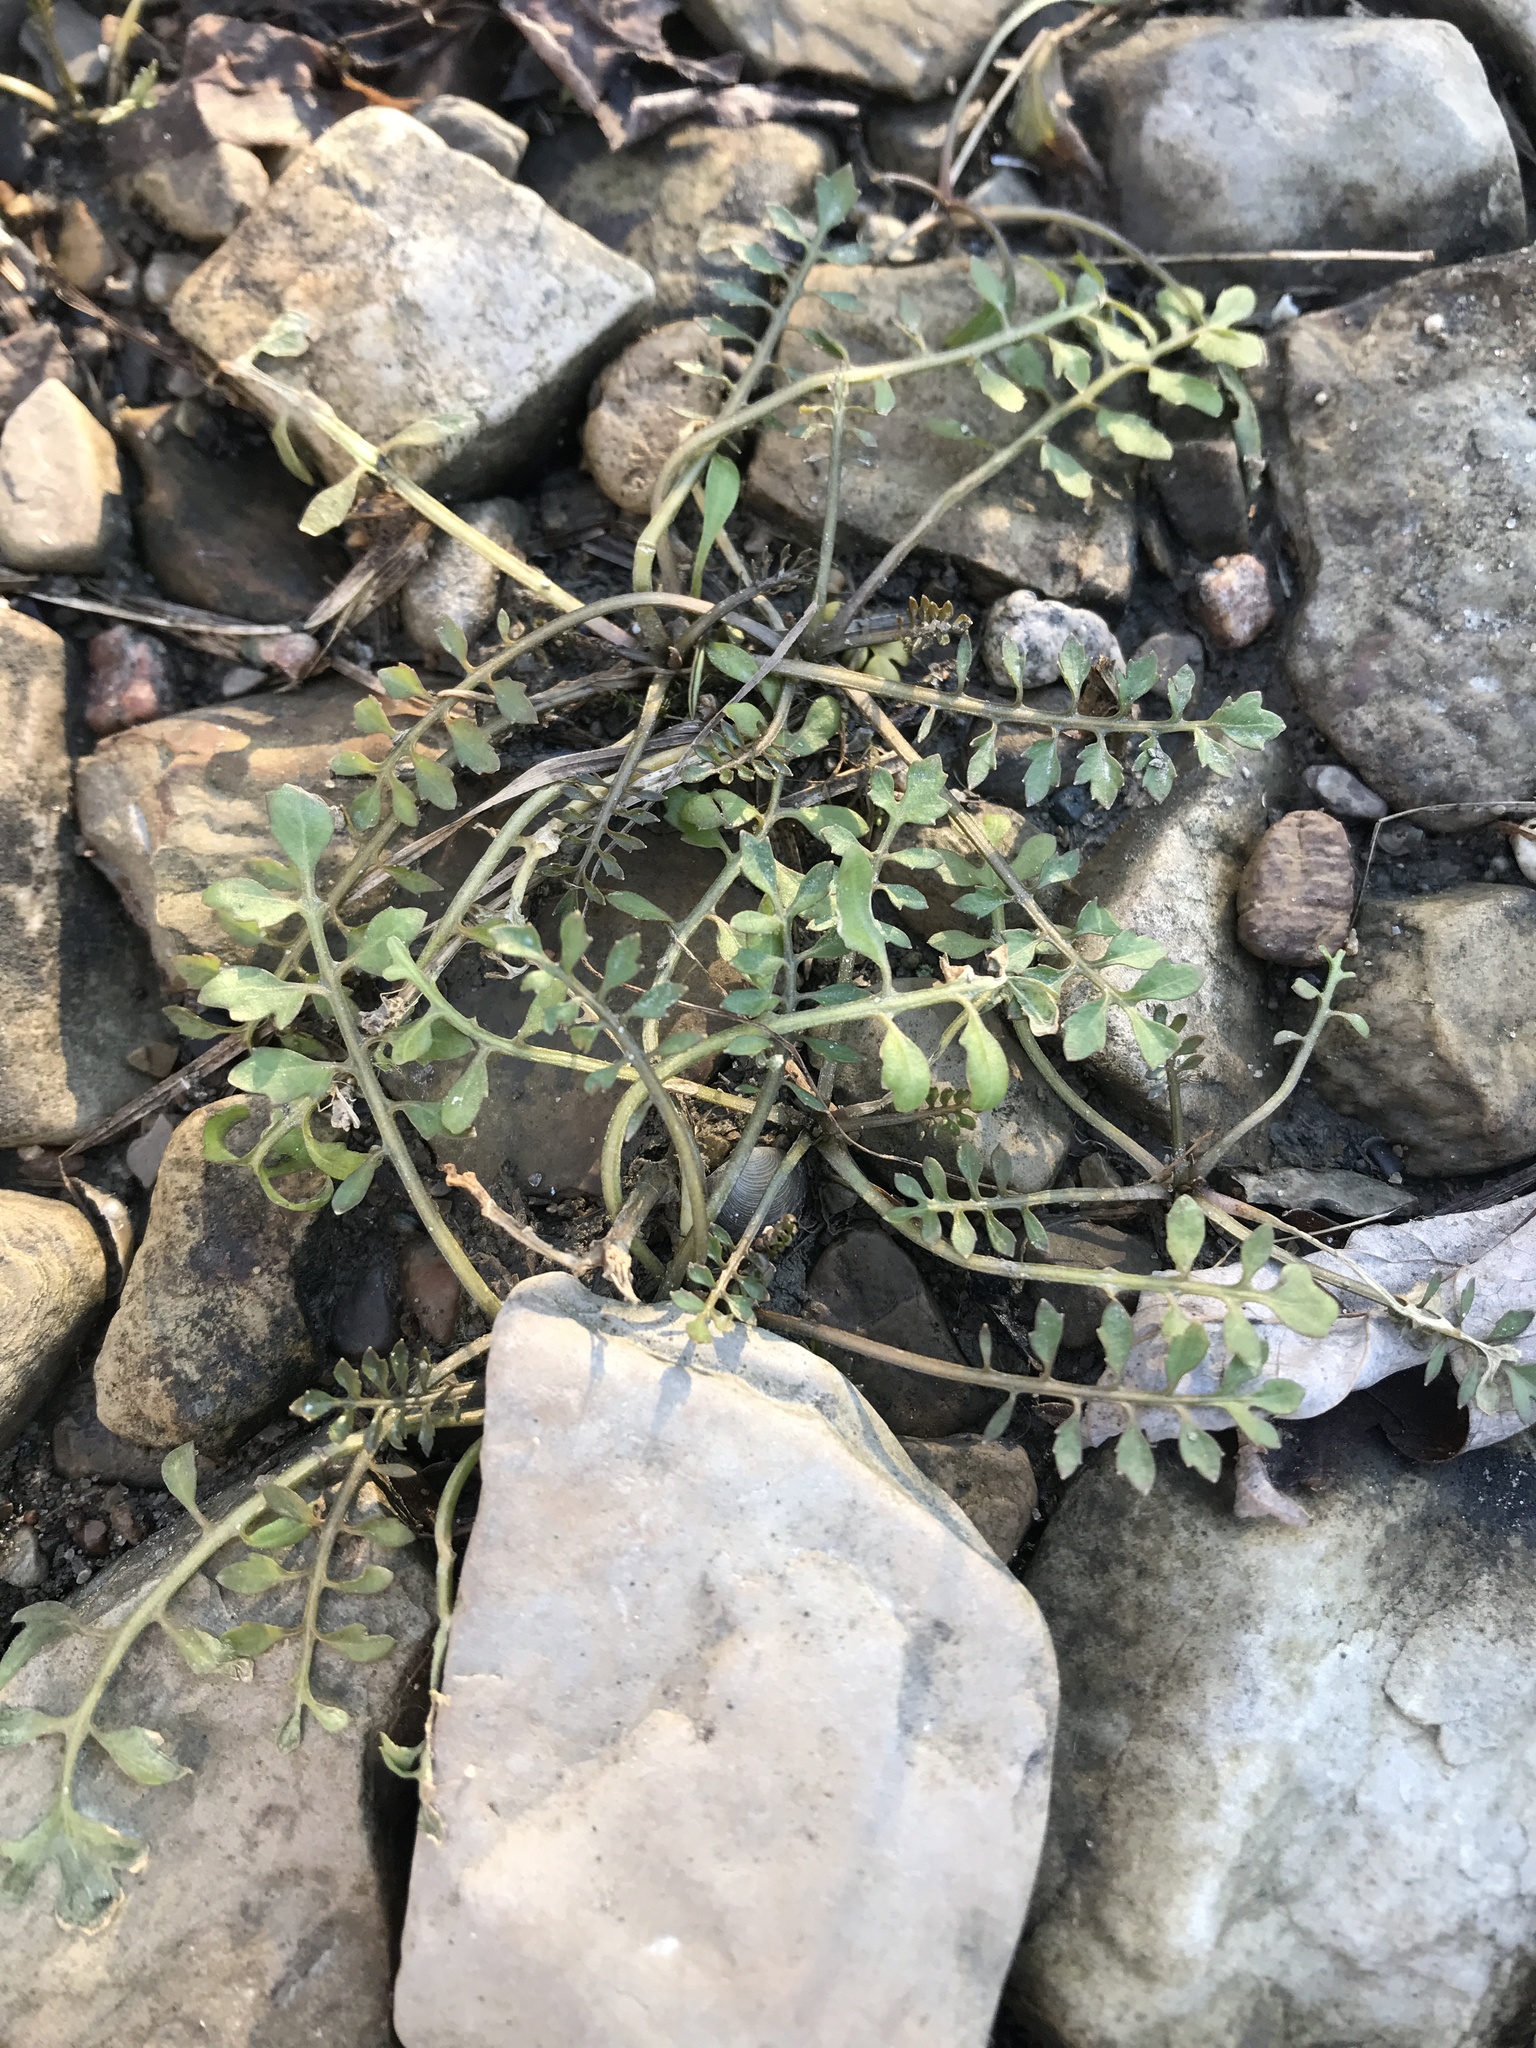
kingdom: Plantae
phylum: Tracheophyta
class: Magnoliopsida
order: Brassicales
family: Brassicaceae
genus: Cardamine
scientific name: Cardamine occulta
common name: Asian wavy bittercress
